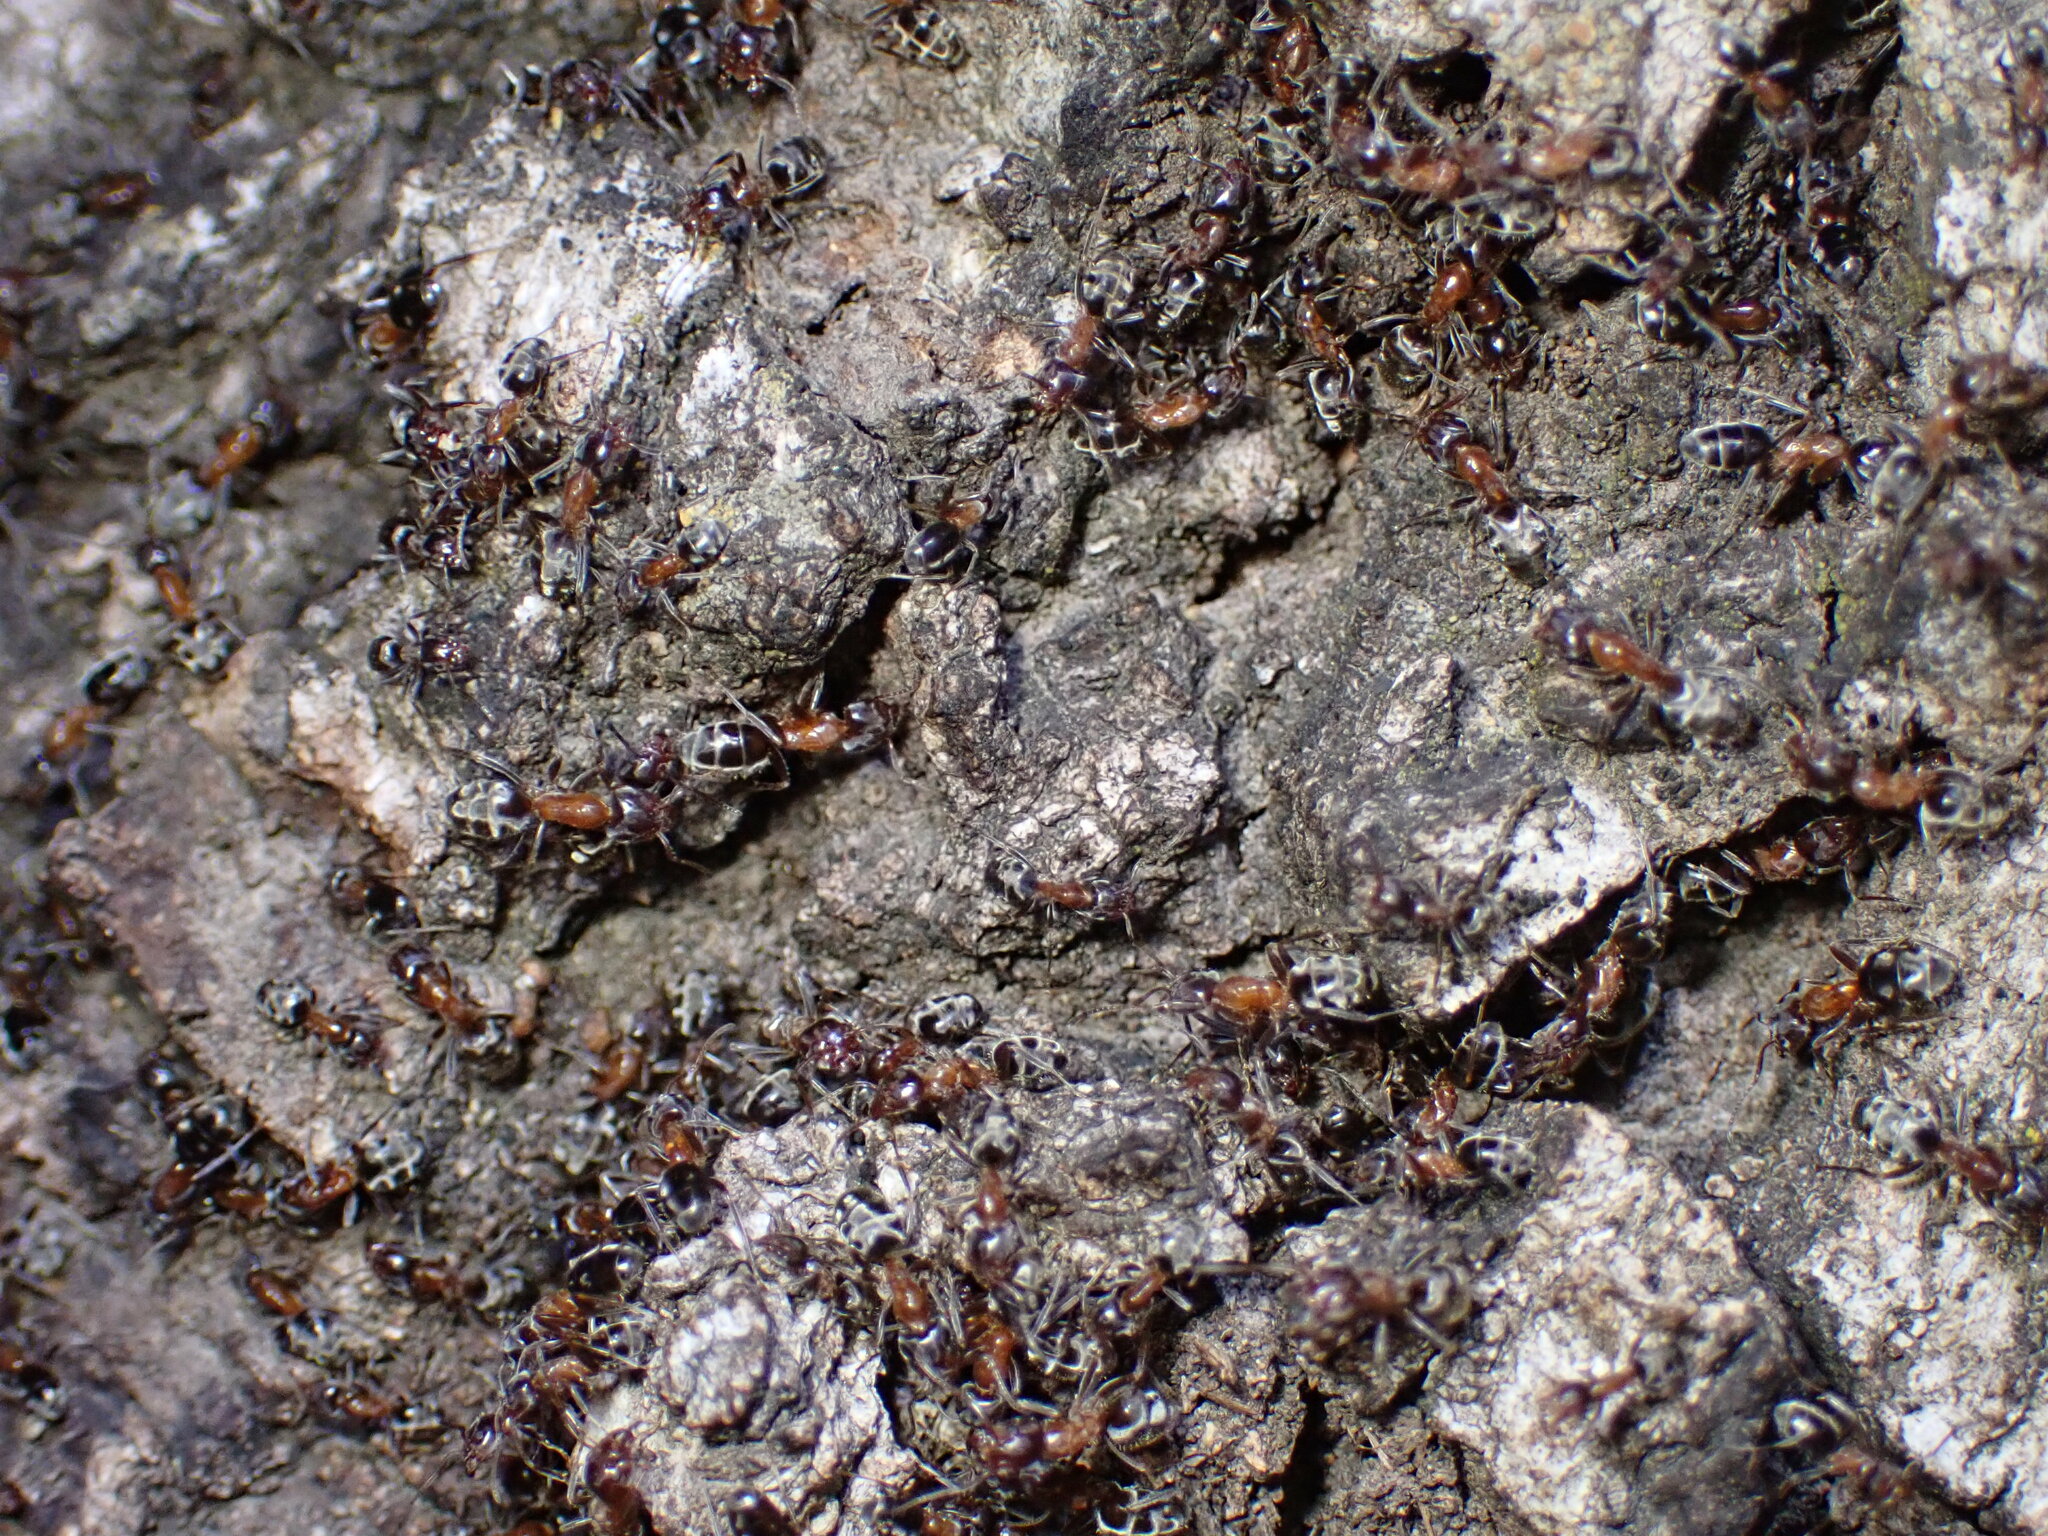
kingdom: Animalia
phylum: Arthropoda
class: Insecta
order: Hymenoptera
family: Formicidae
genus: Liometopum
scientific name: Liometopum occidentale
